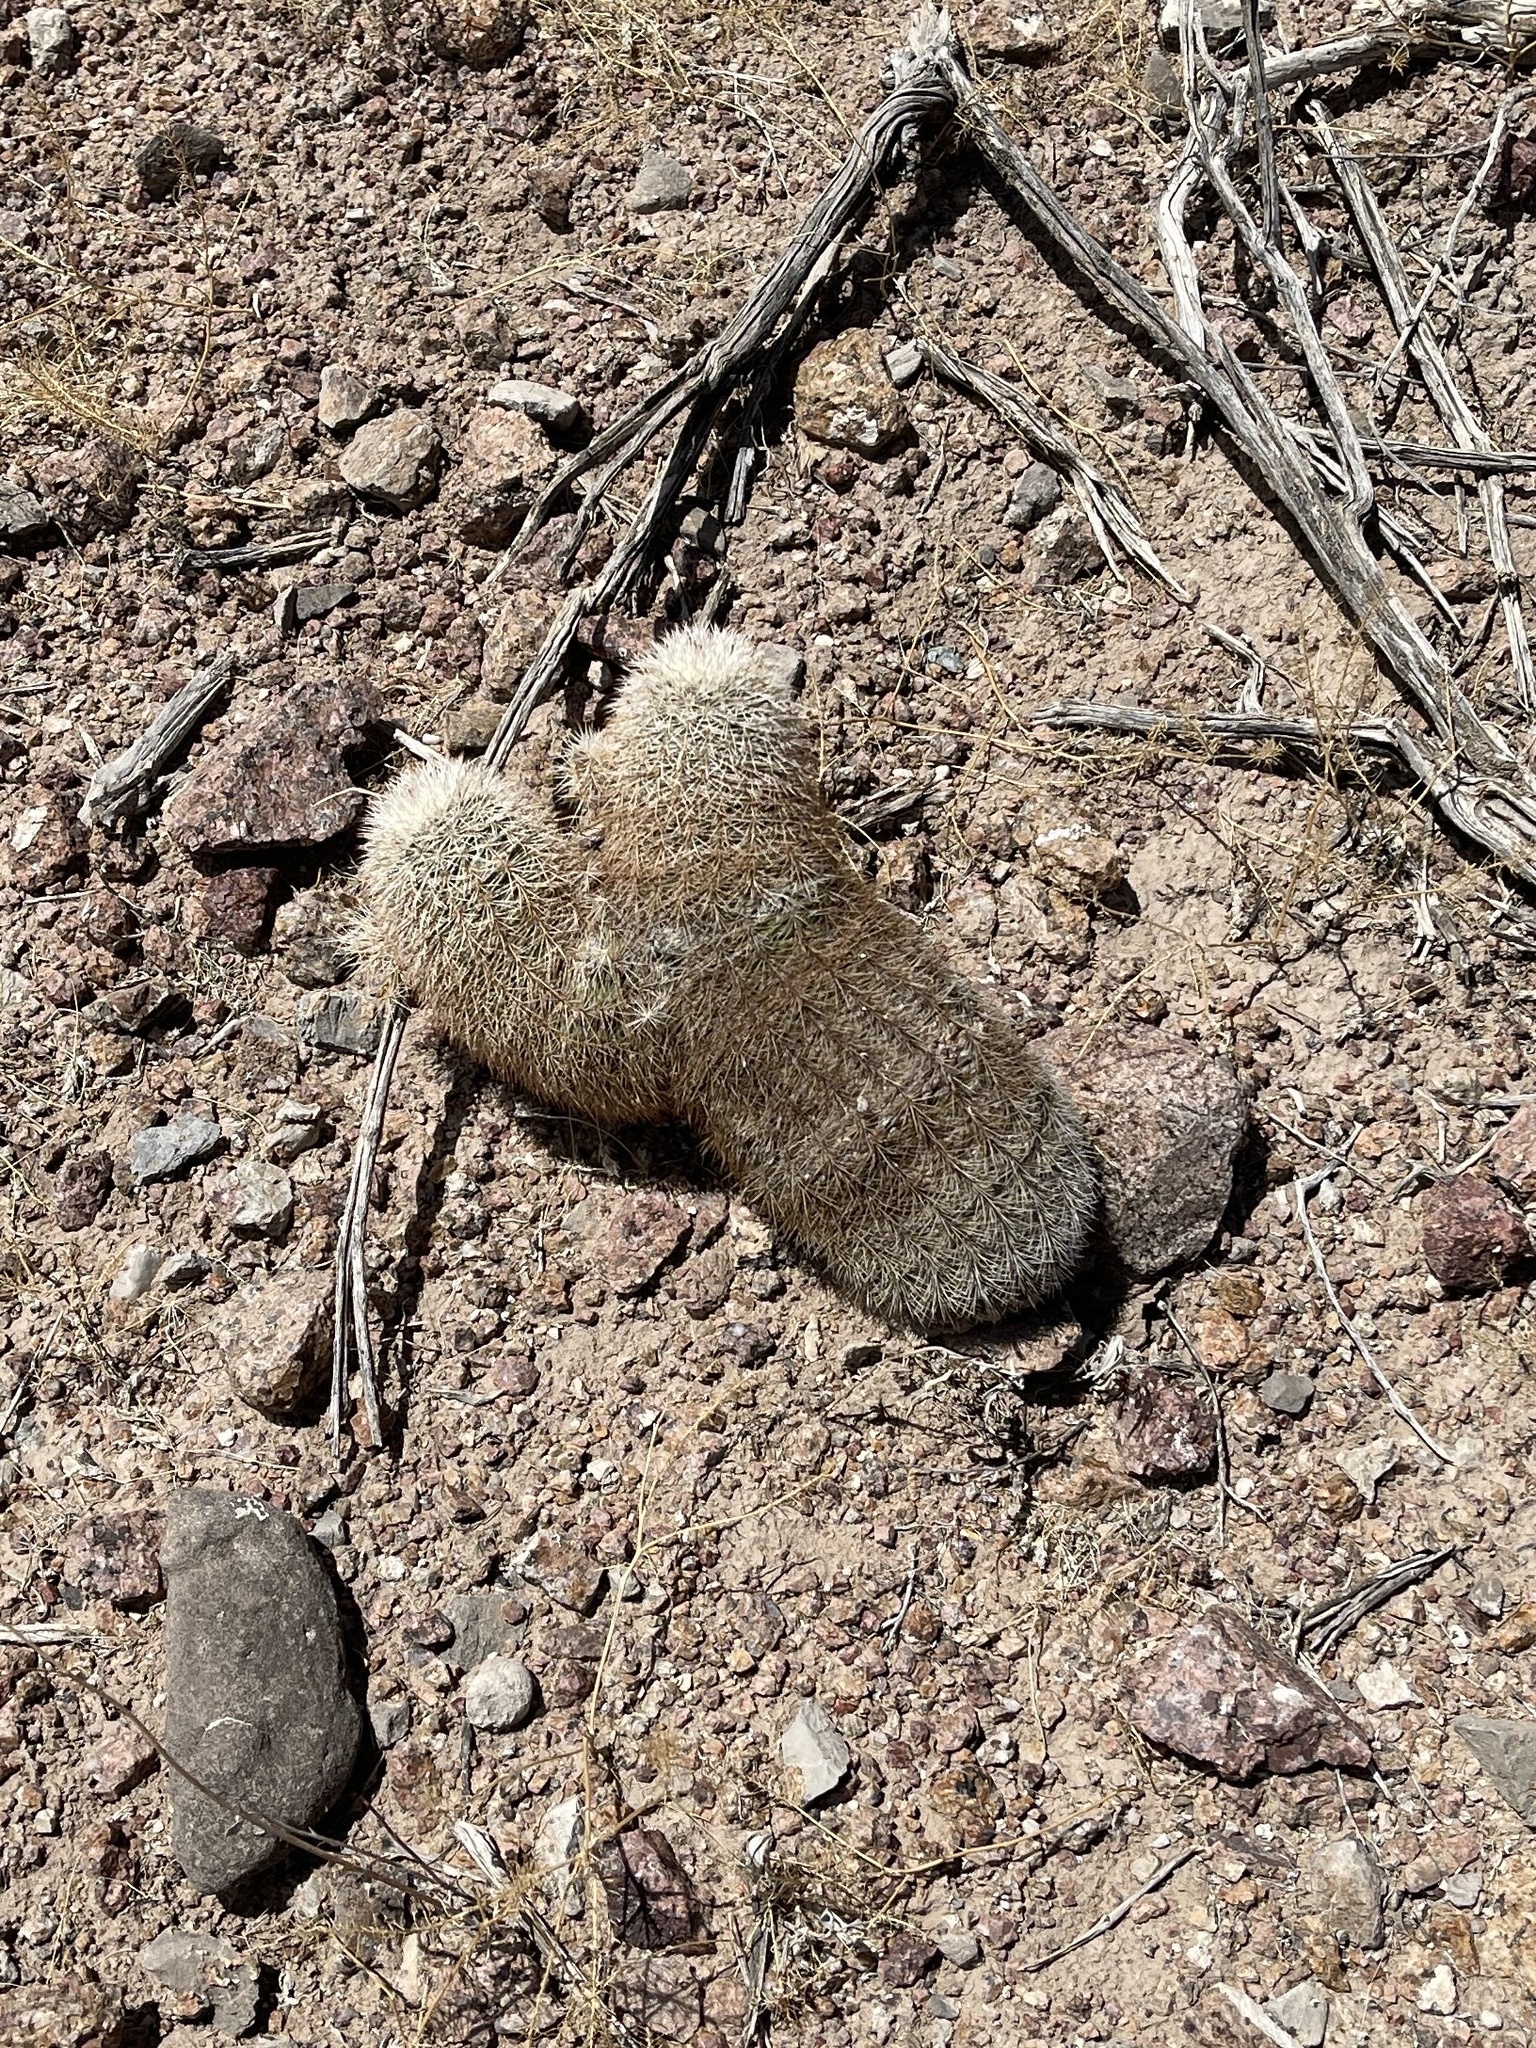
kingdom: Plantae
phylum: Tracheophyta
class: Magnoliopsida
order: Caryophyllales
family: Cactaceae
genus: Echinocereus
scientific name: Echinocereus dasyacanthus
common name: Spiny hedgehog cactus
